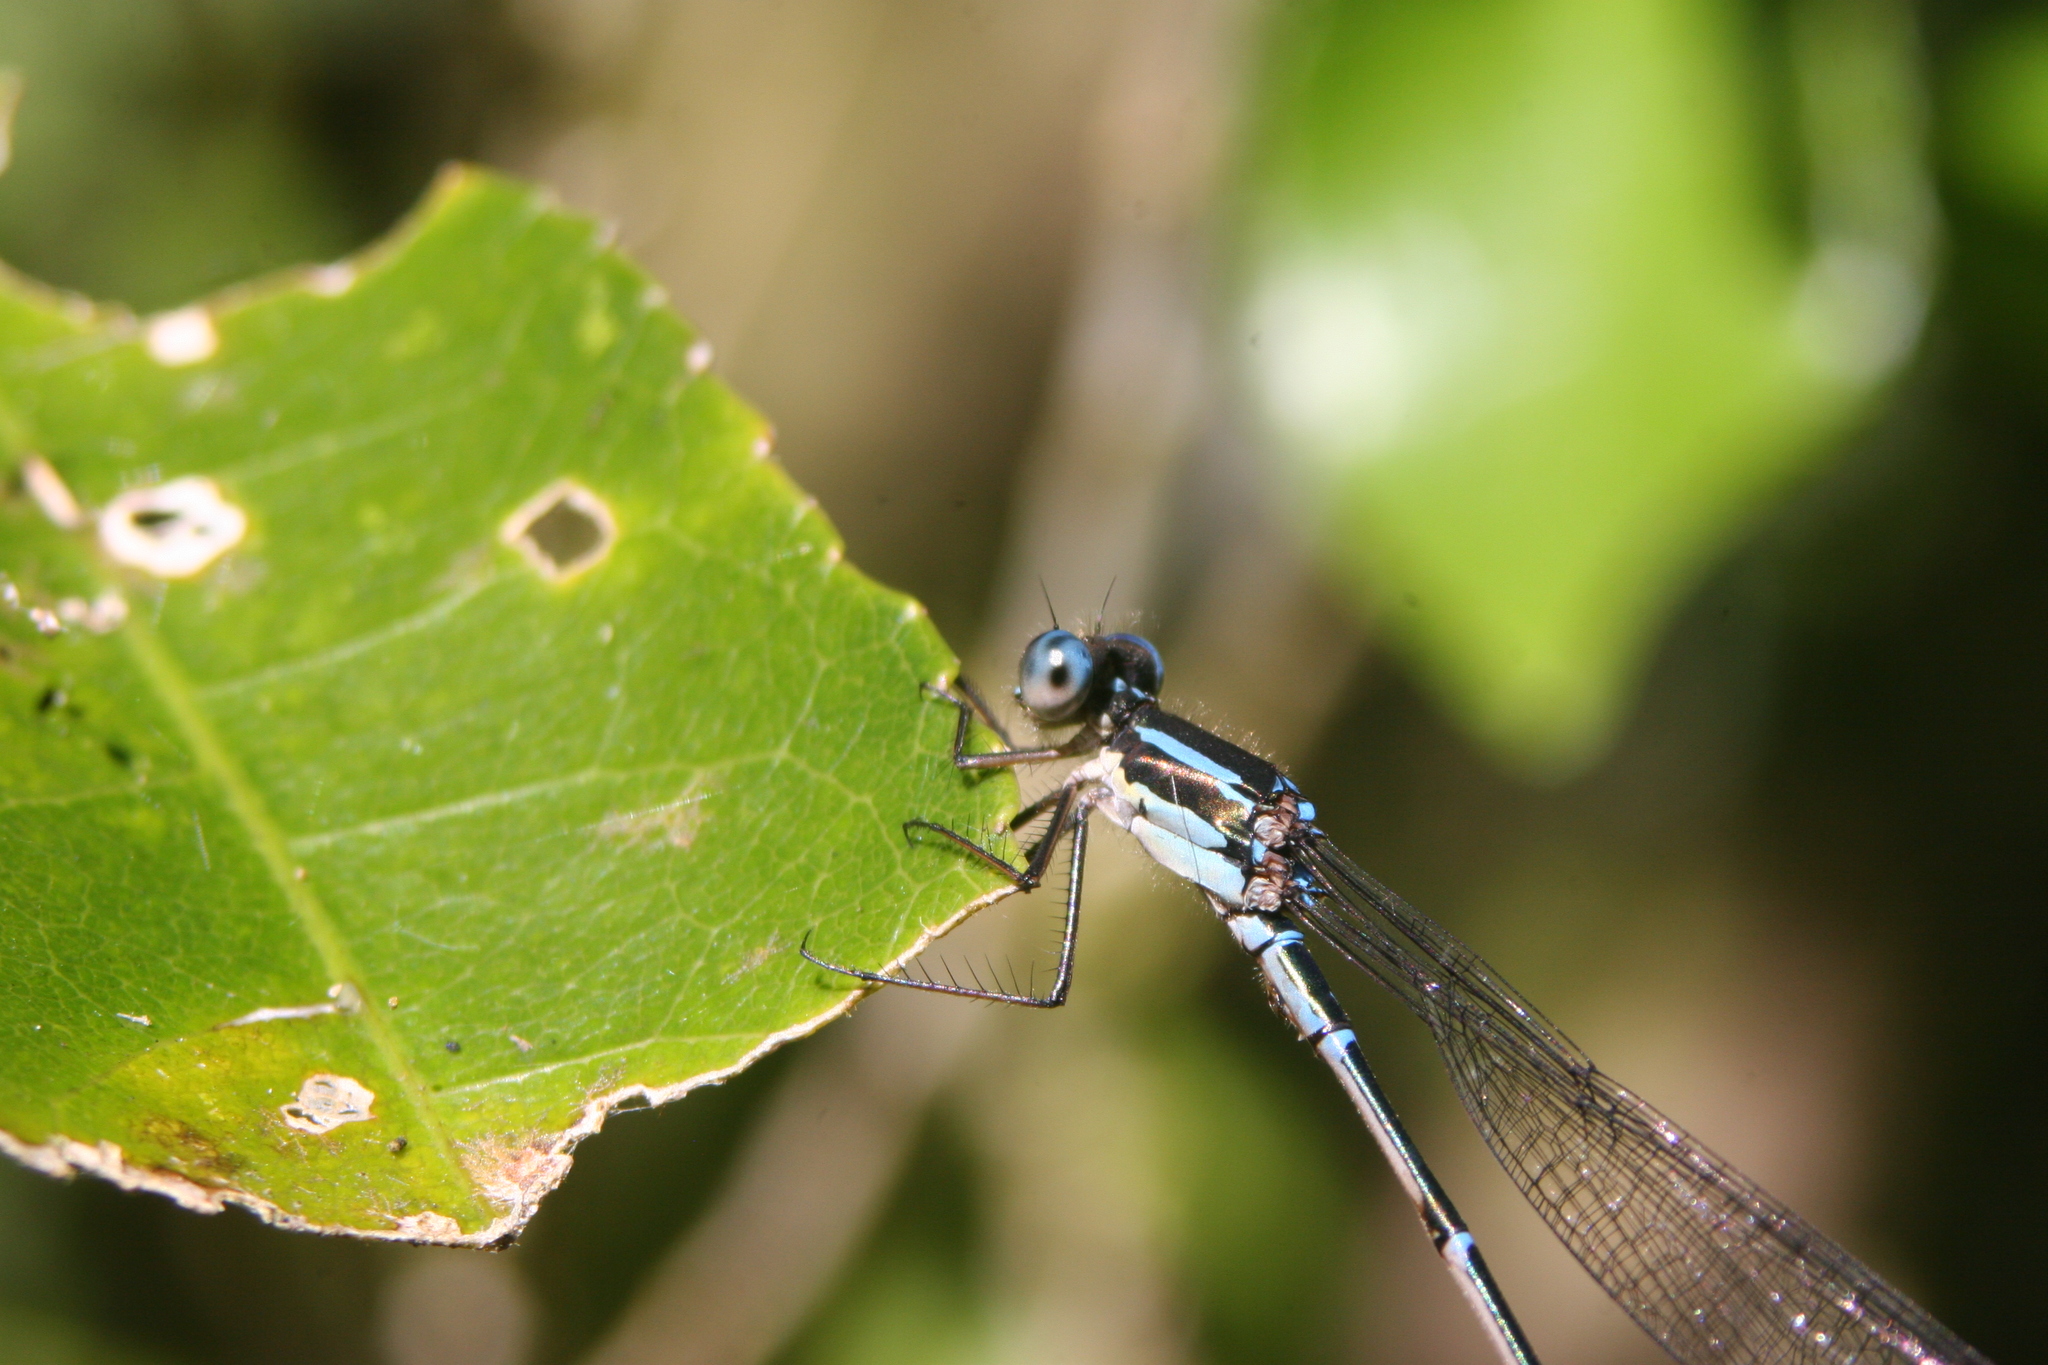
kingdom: Animalia
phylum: Arthropoda
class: Insecta
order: Odonata
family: Lestidae
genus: Austrolestes
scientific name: Austrolestes colensonis
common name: Blue damselfly
